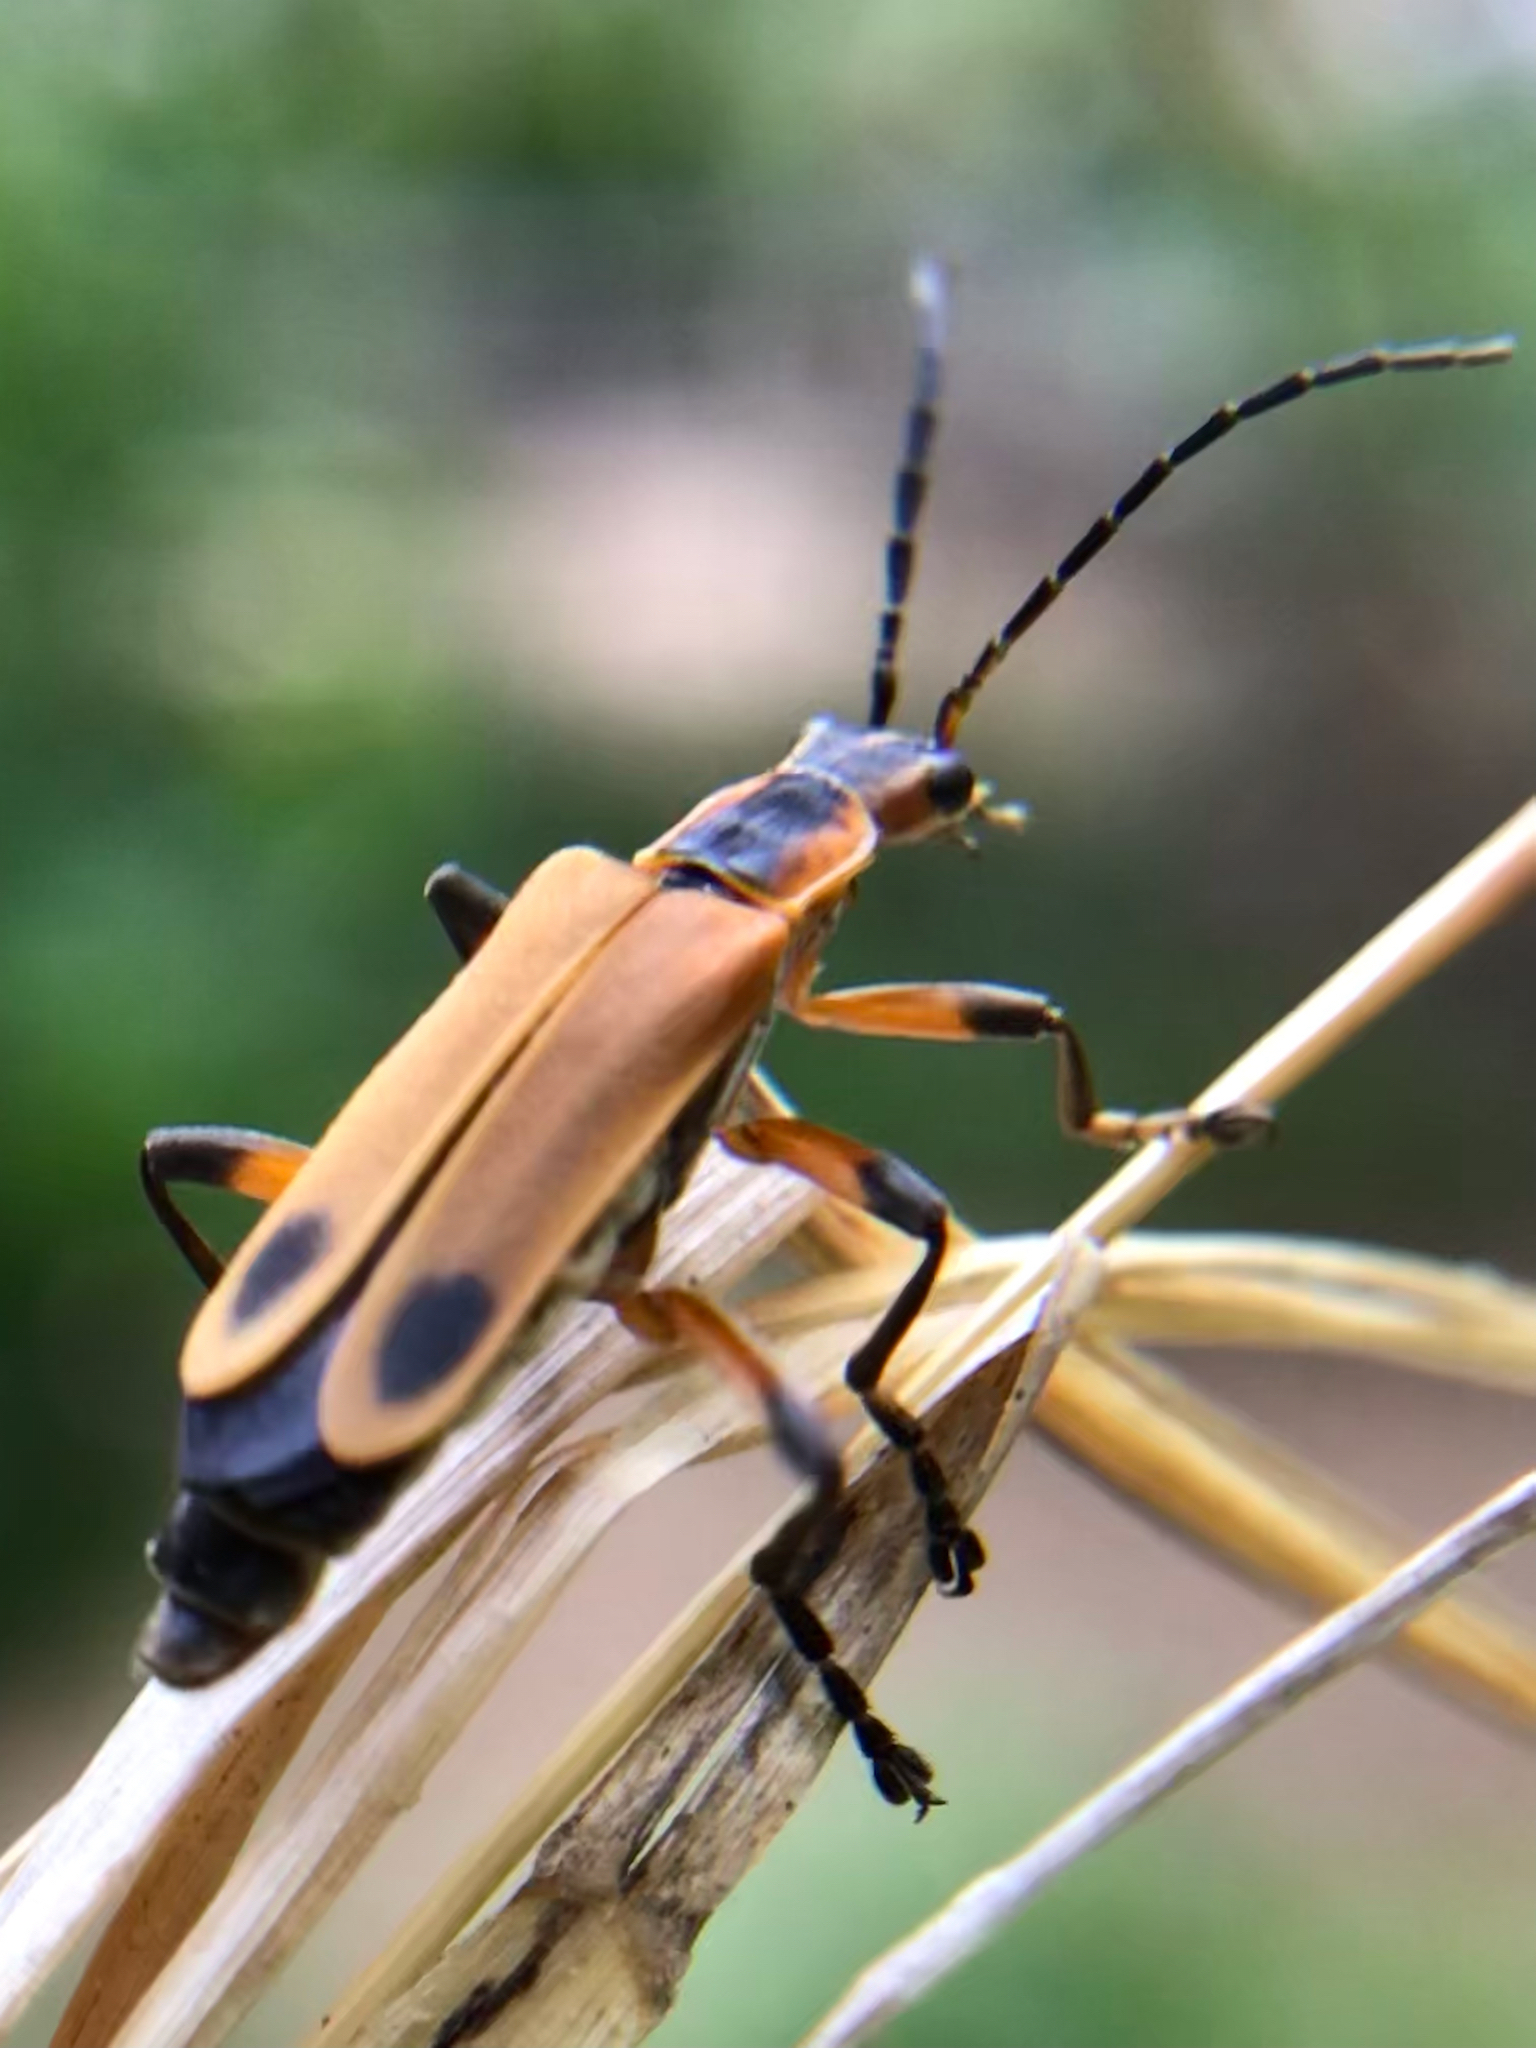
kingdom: Animalia
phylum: Arthropoda
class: Insecta
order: Coleoptera
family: Cantharidae
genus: Chauliognathus
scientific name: Chauliognathus marginatus
